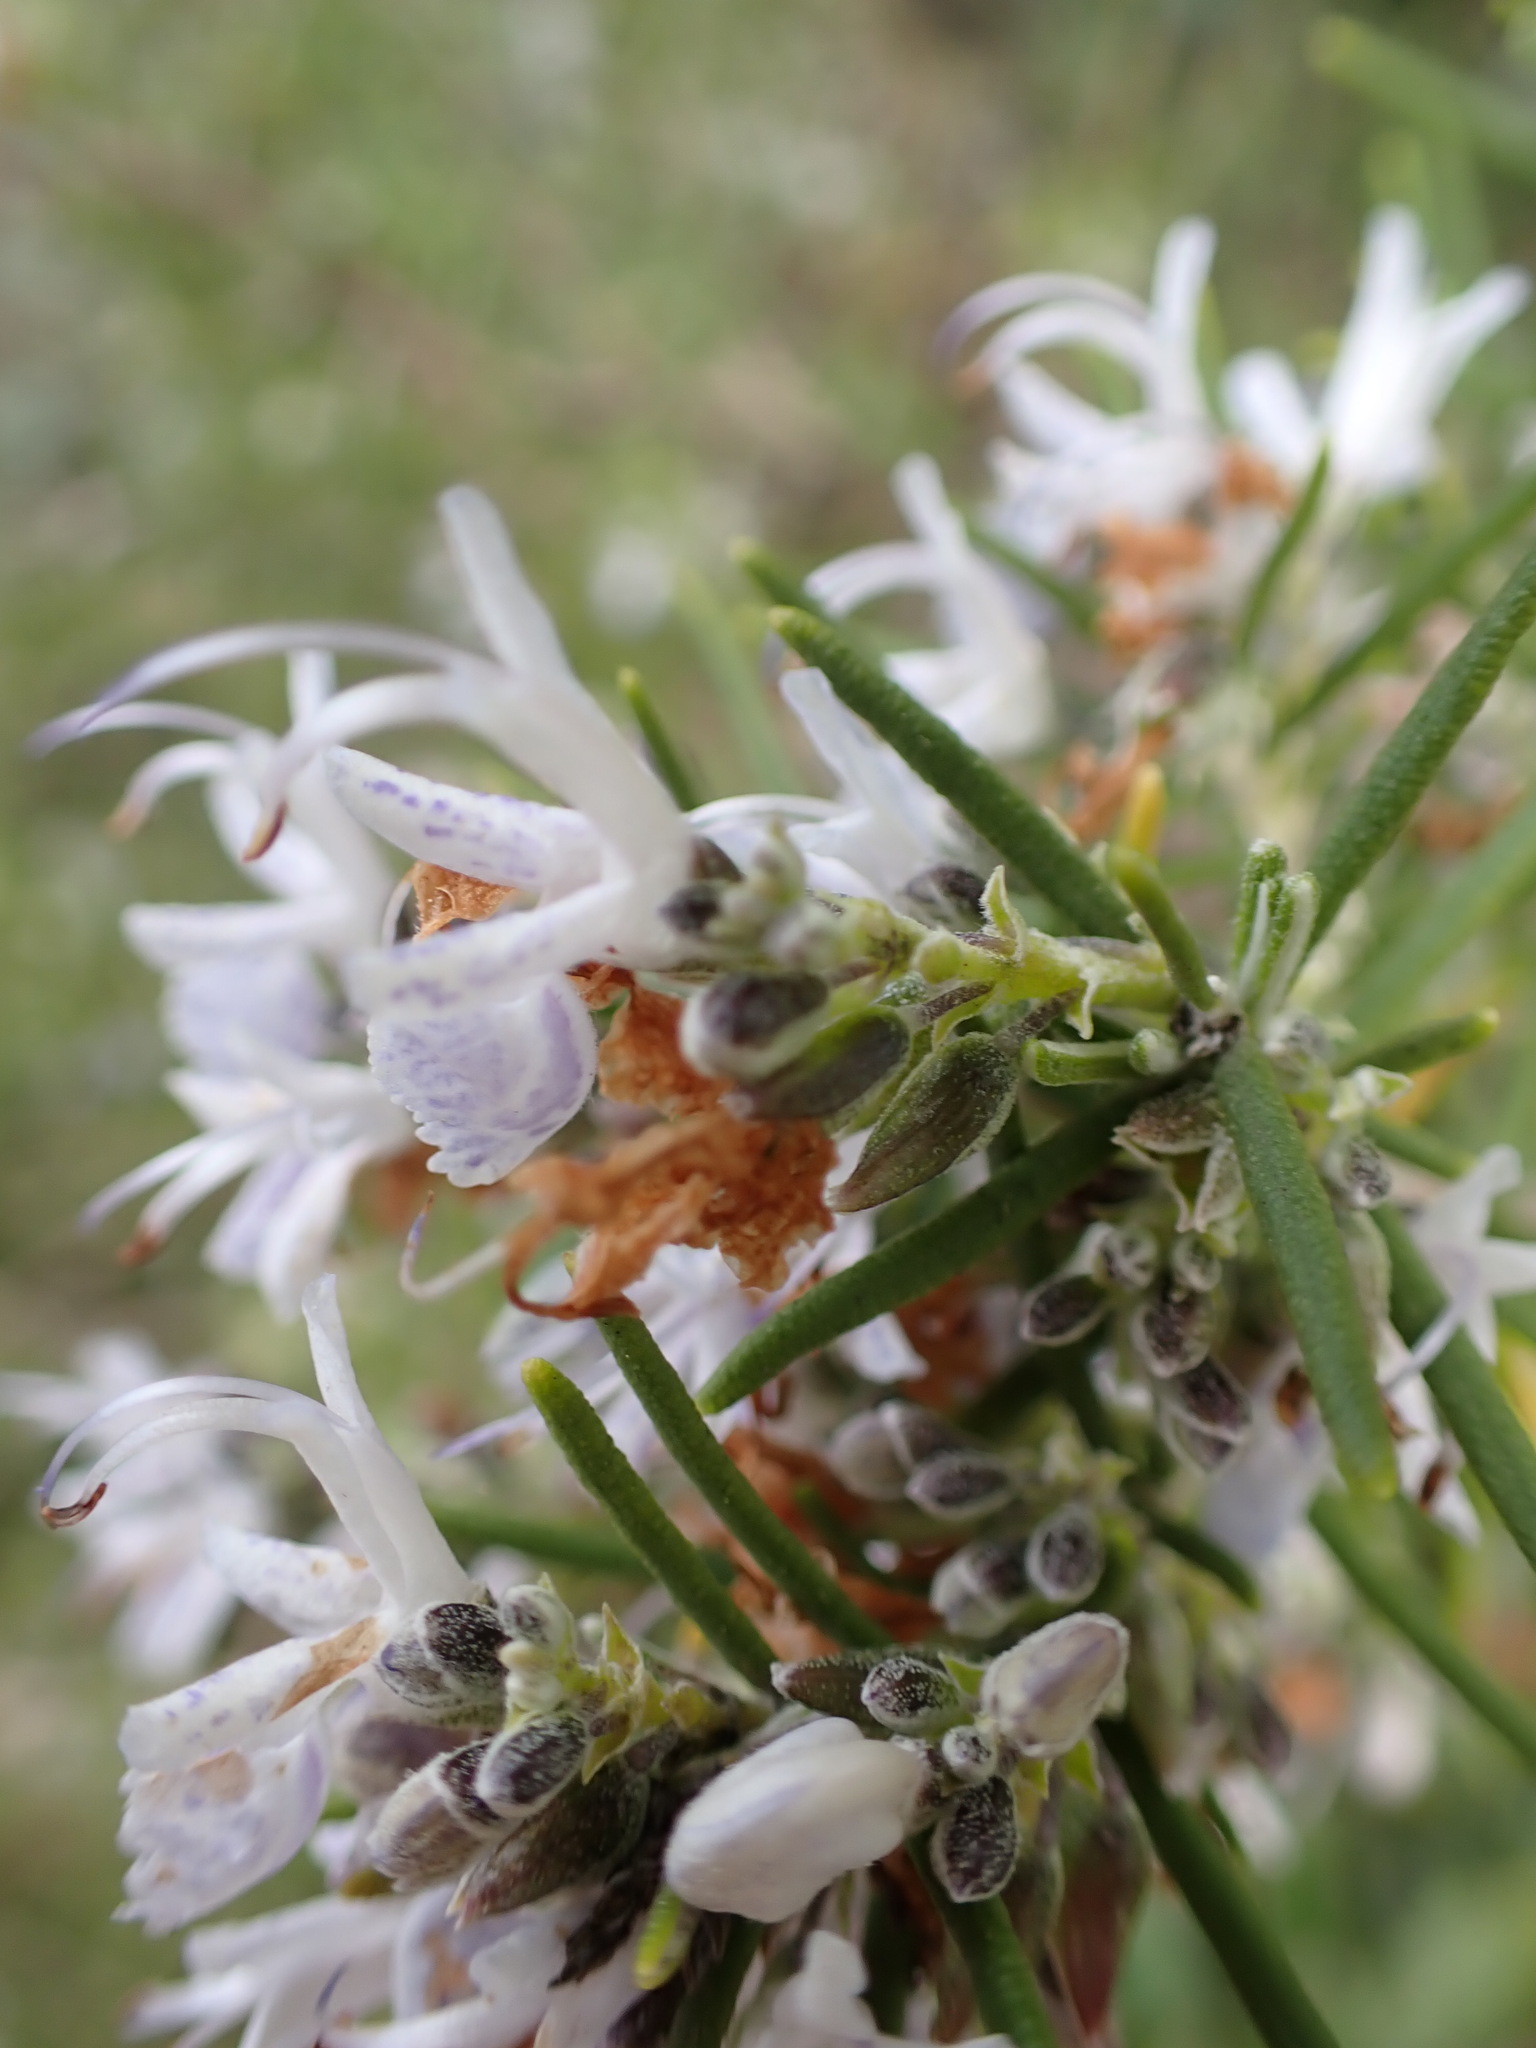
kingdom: Plantae
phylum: Tracheophyta
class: Magnoliopsida
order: Lamiales
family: Lamiaceae
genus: Salvia
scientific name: Salvia rosmarinus
